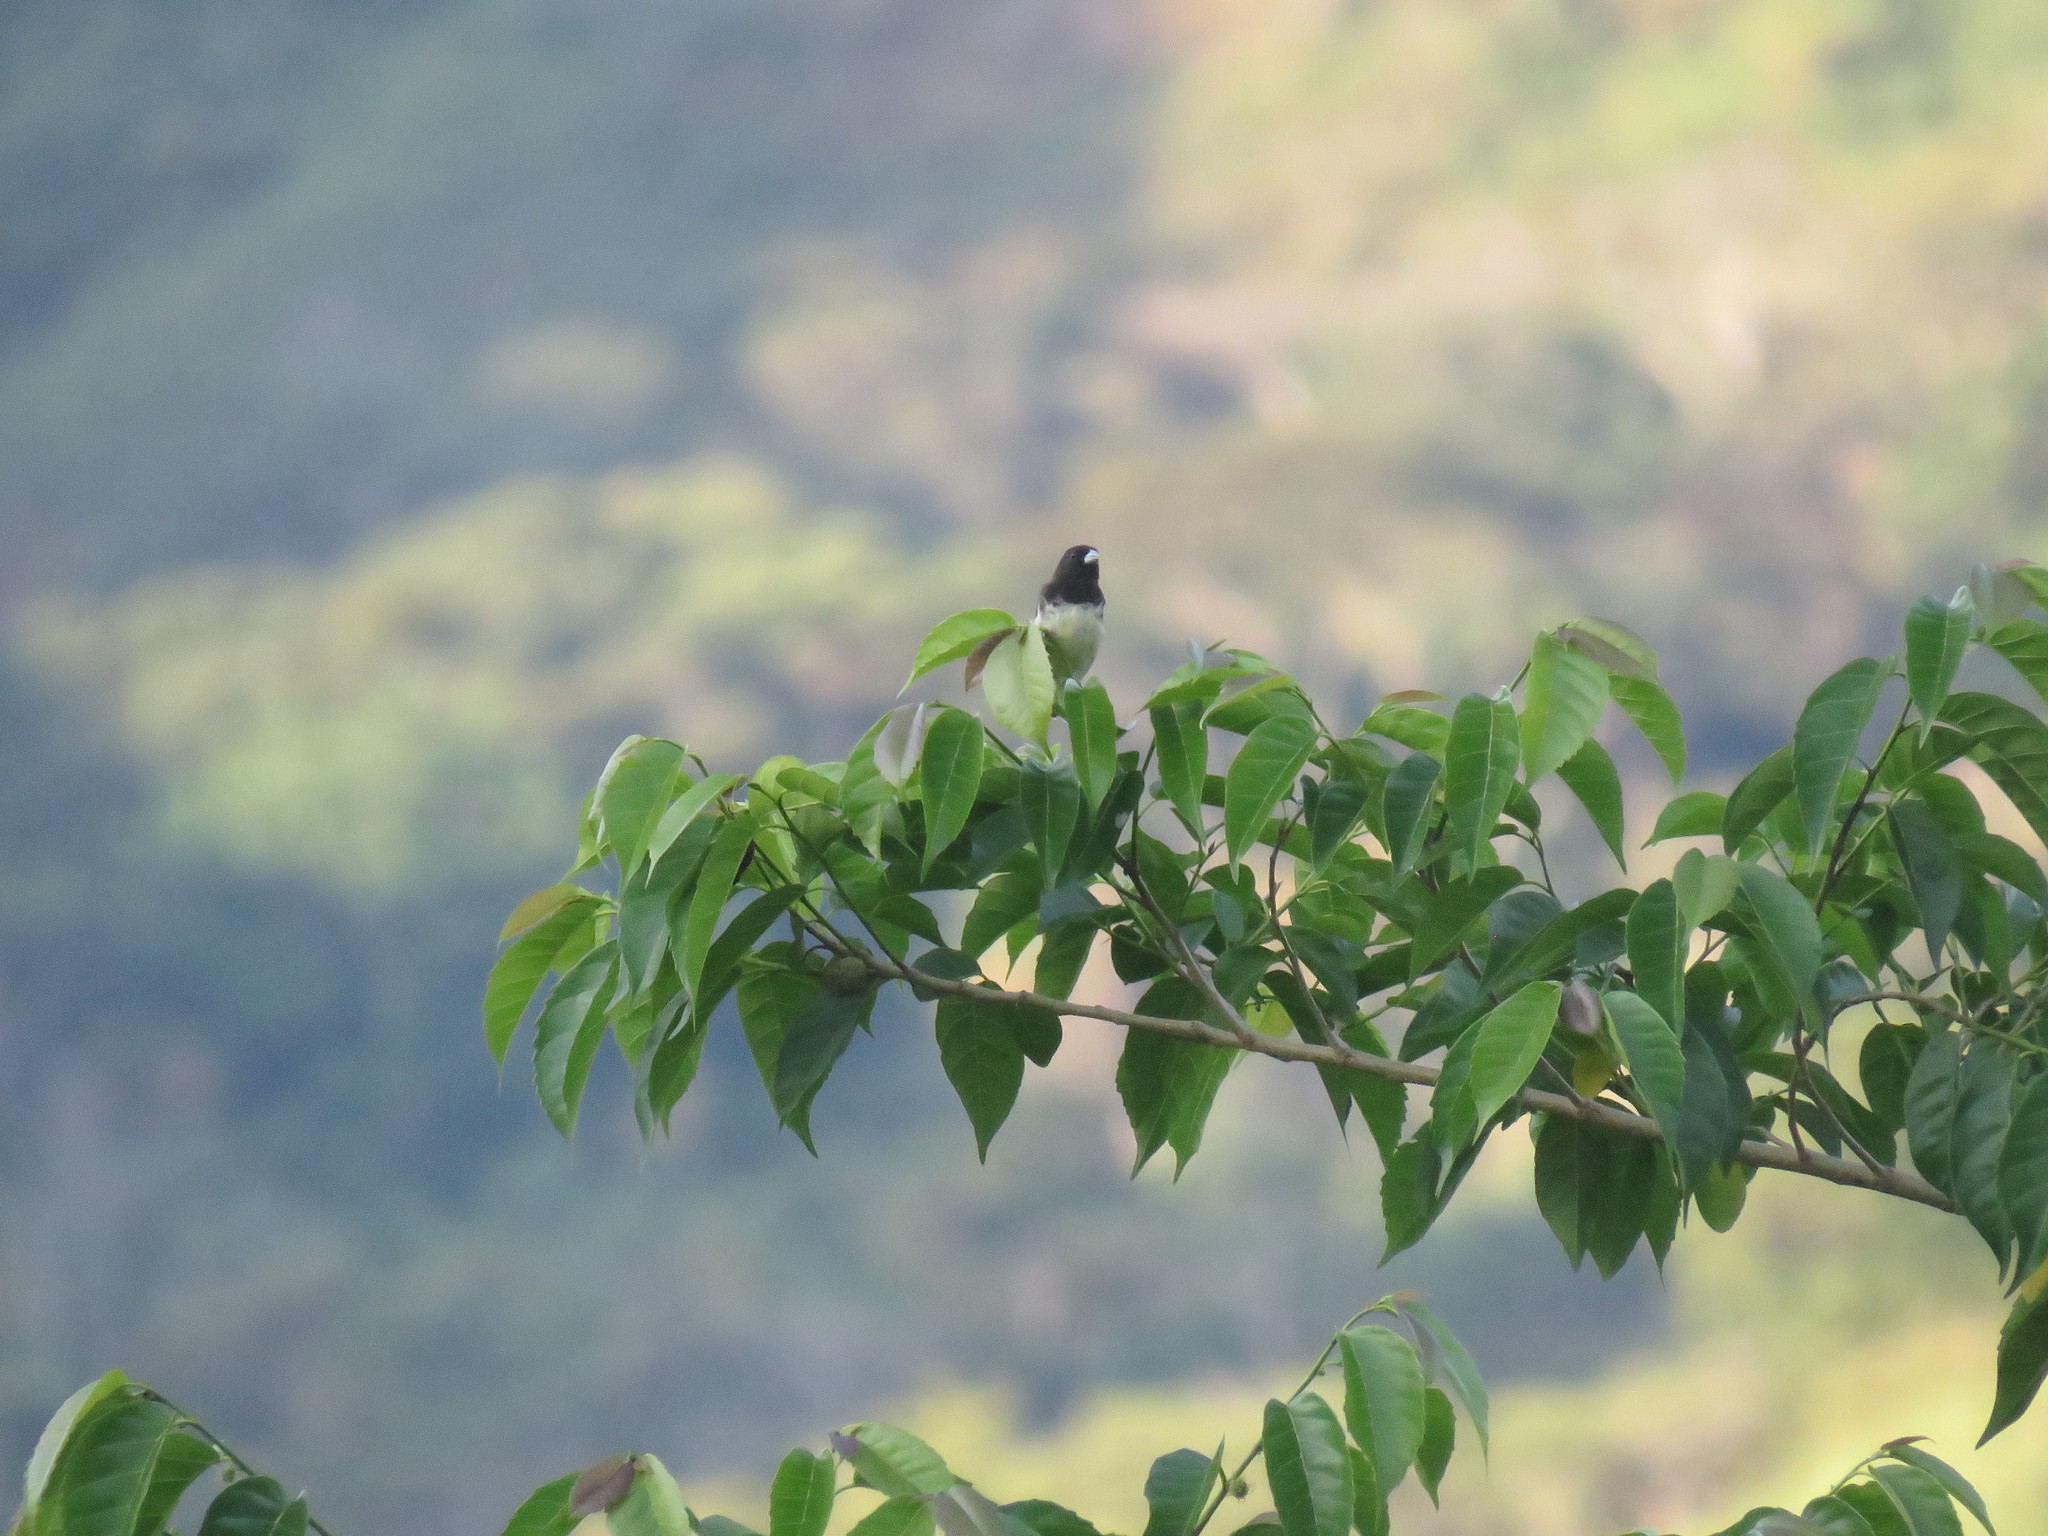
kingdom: Animalia
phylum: Chordata
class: Aves
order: Passeriformes
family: Thraupidae
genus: Sporophila
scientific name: Sporophila nigricollis
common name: Yellow-bellied seedeater
